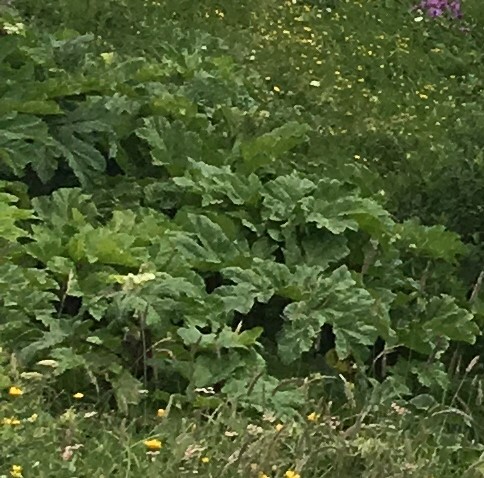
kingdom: Plantae
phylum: Tracheophyta
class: Magnoliopsida
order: Apiales
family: Apiaceae
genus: Heracleum
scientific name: Heracleum
